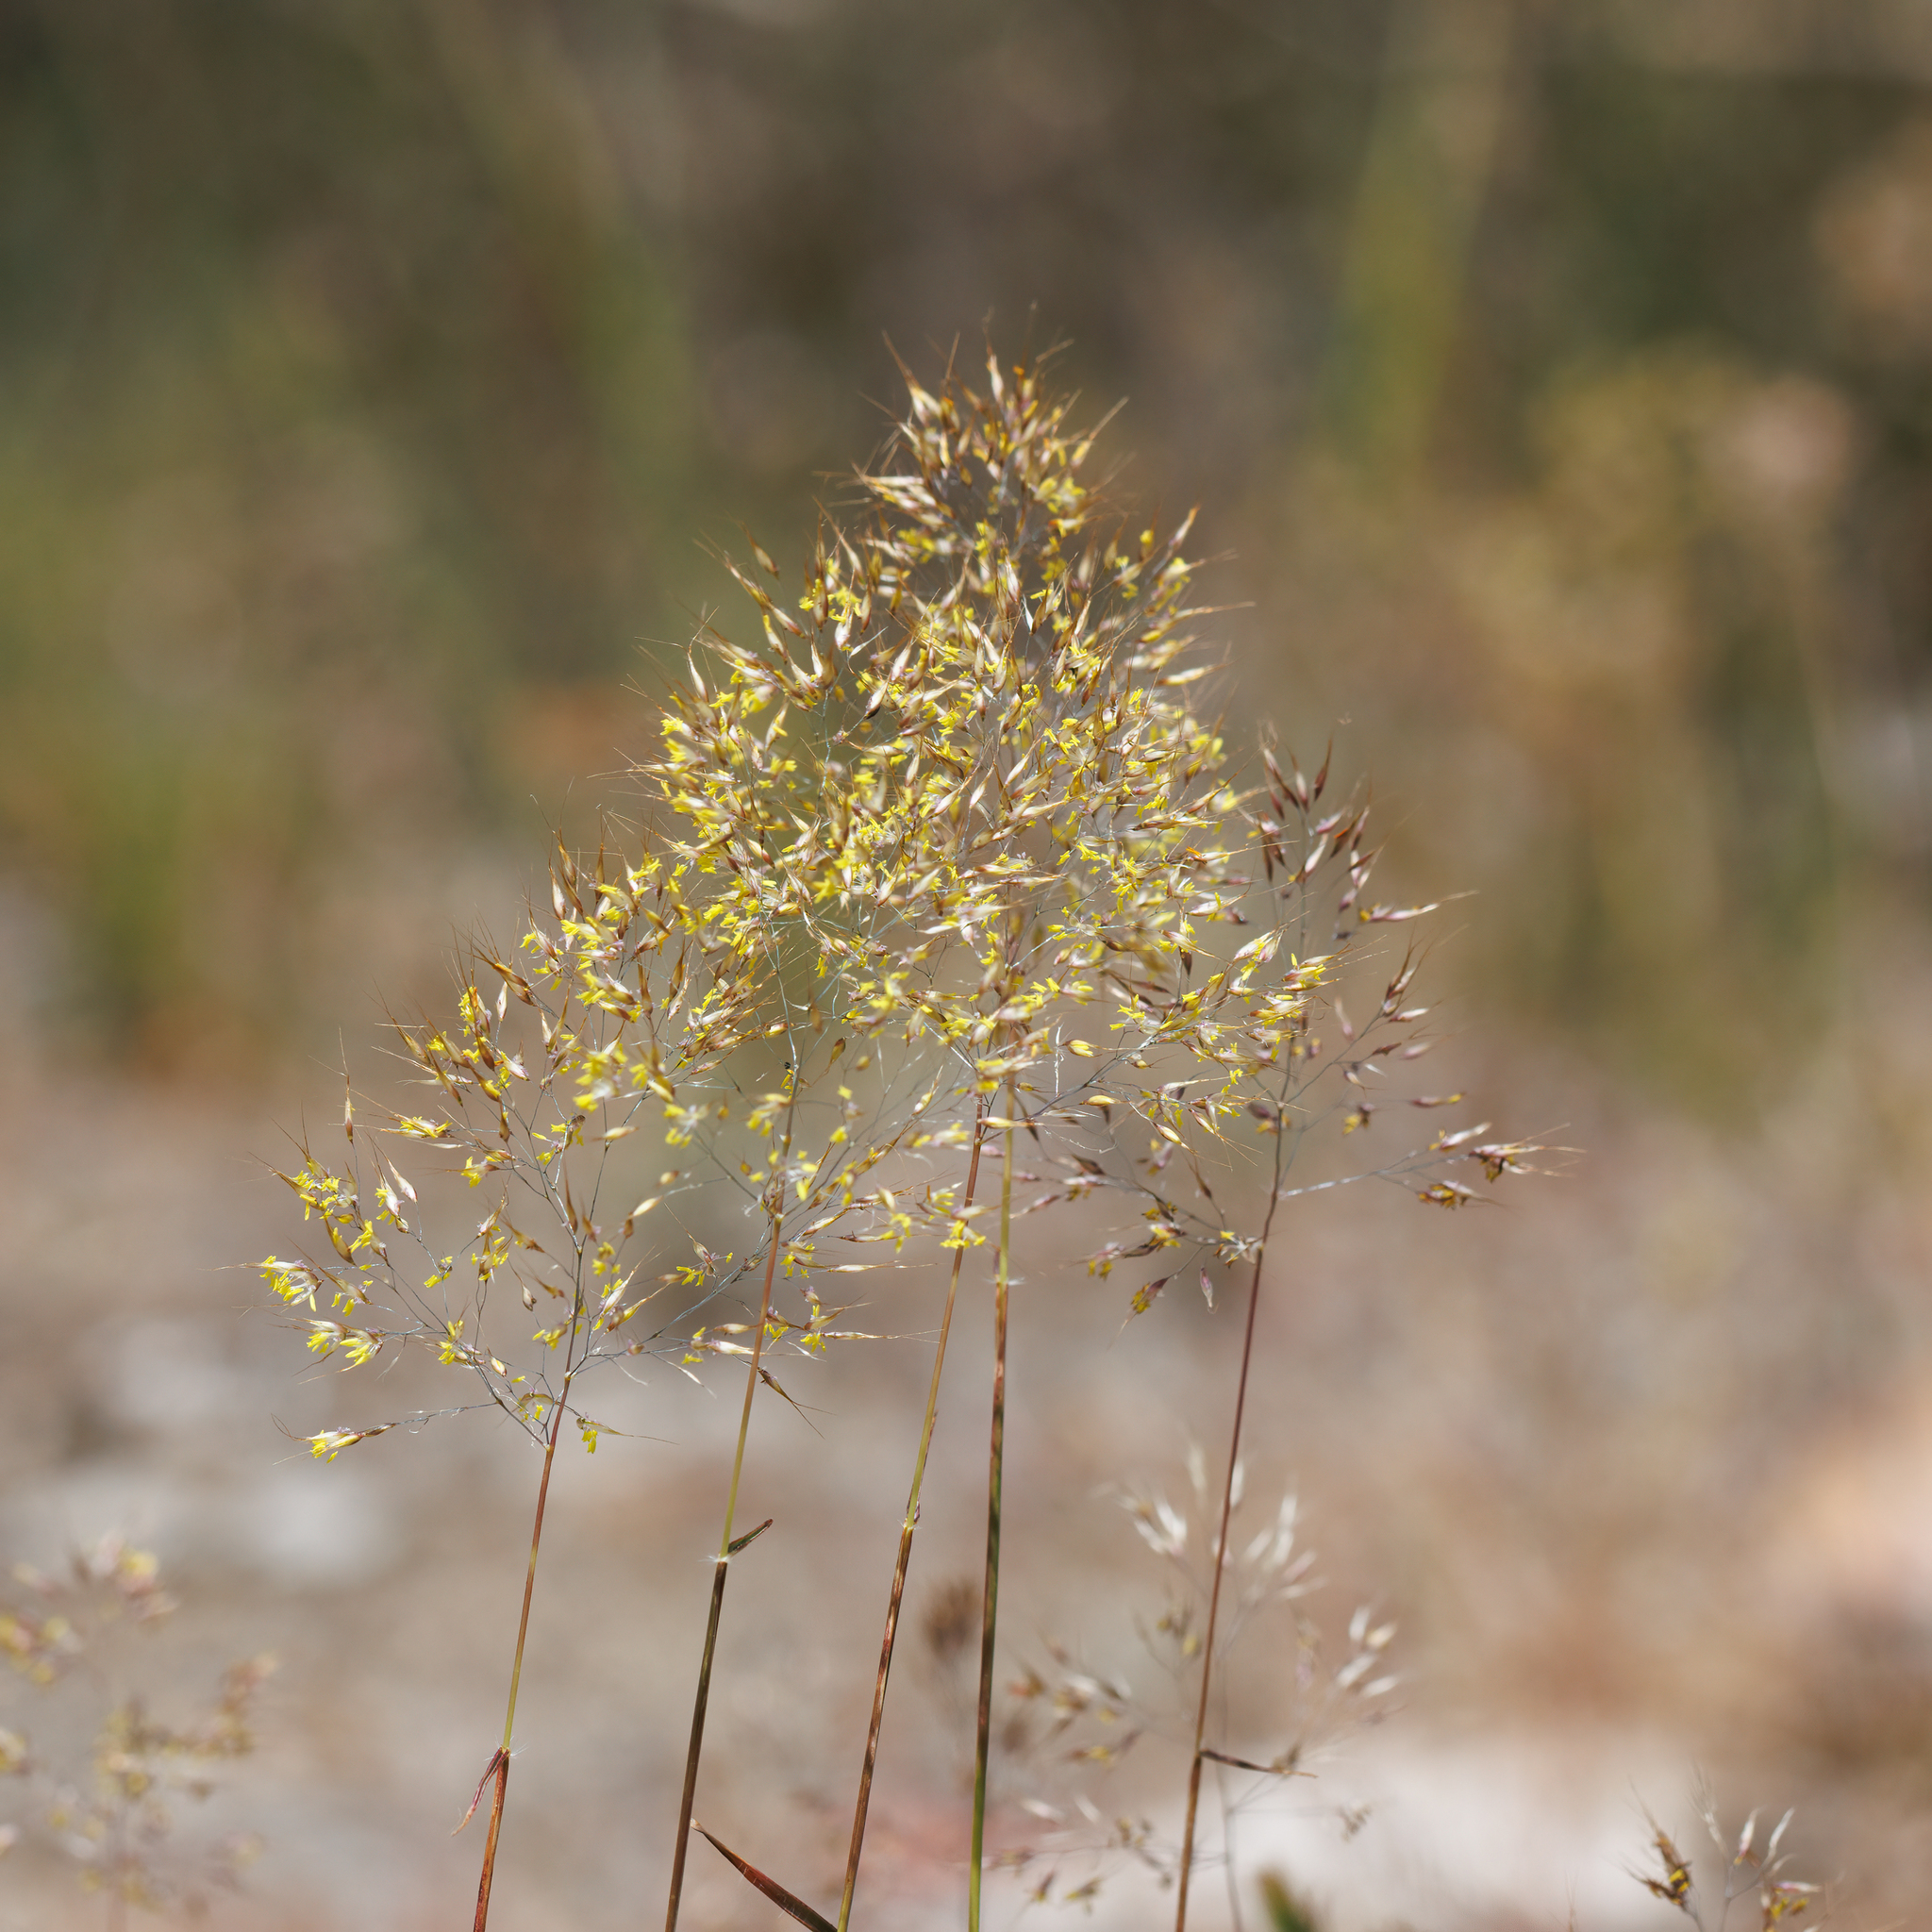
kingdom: Plantae
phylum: Tracheophyta
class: Liliopsida
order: Poales
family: Poaceae
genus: Pentameris
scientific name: Pentameris pallida
